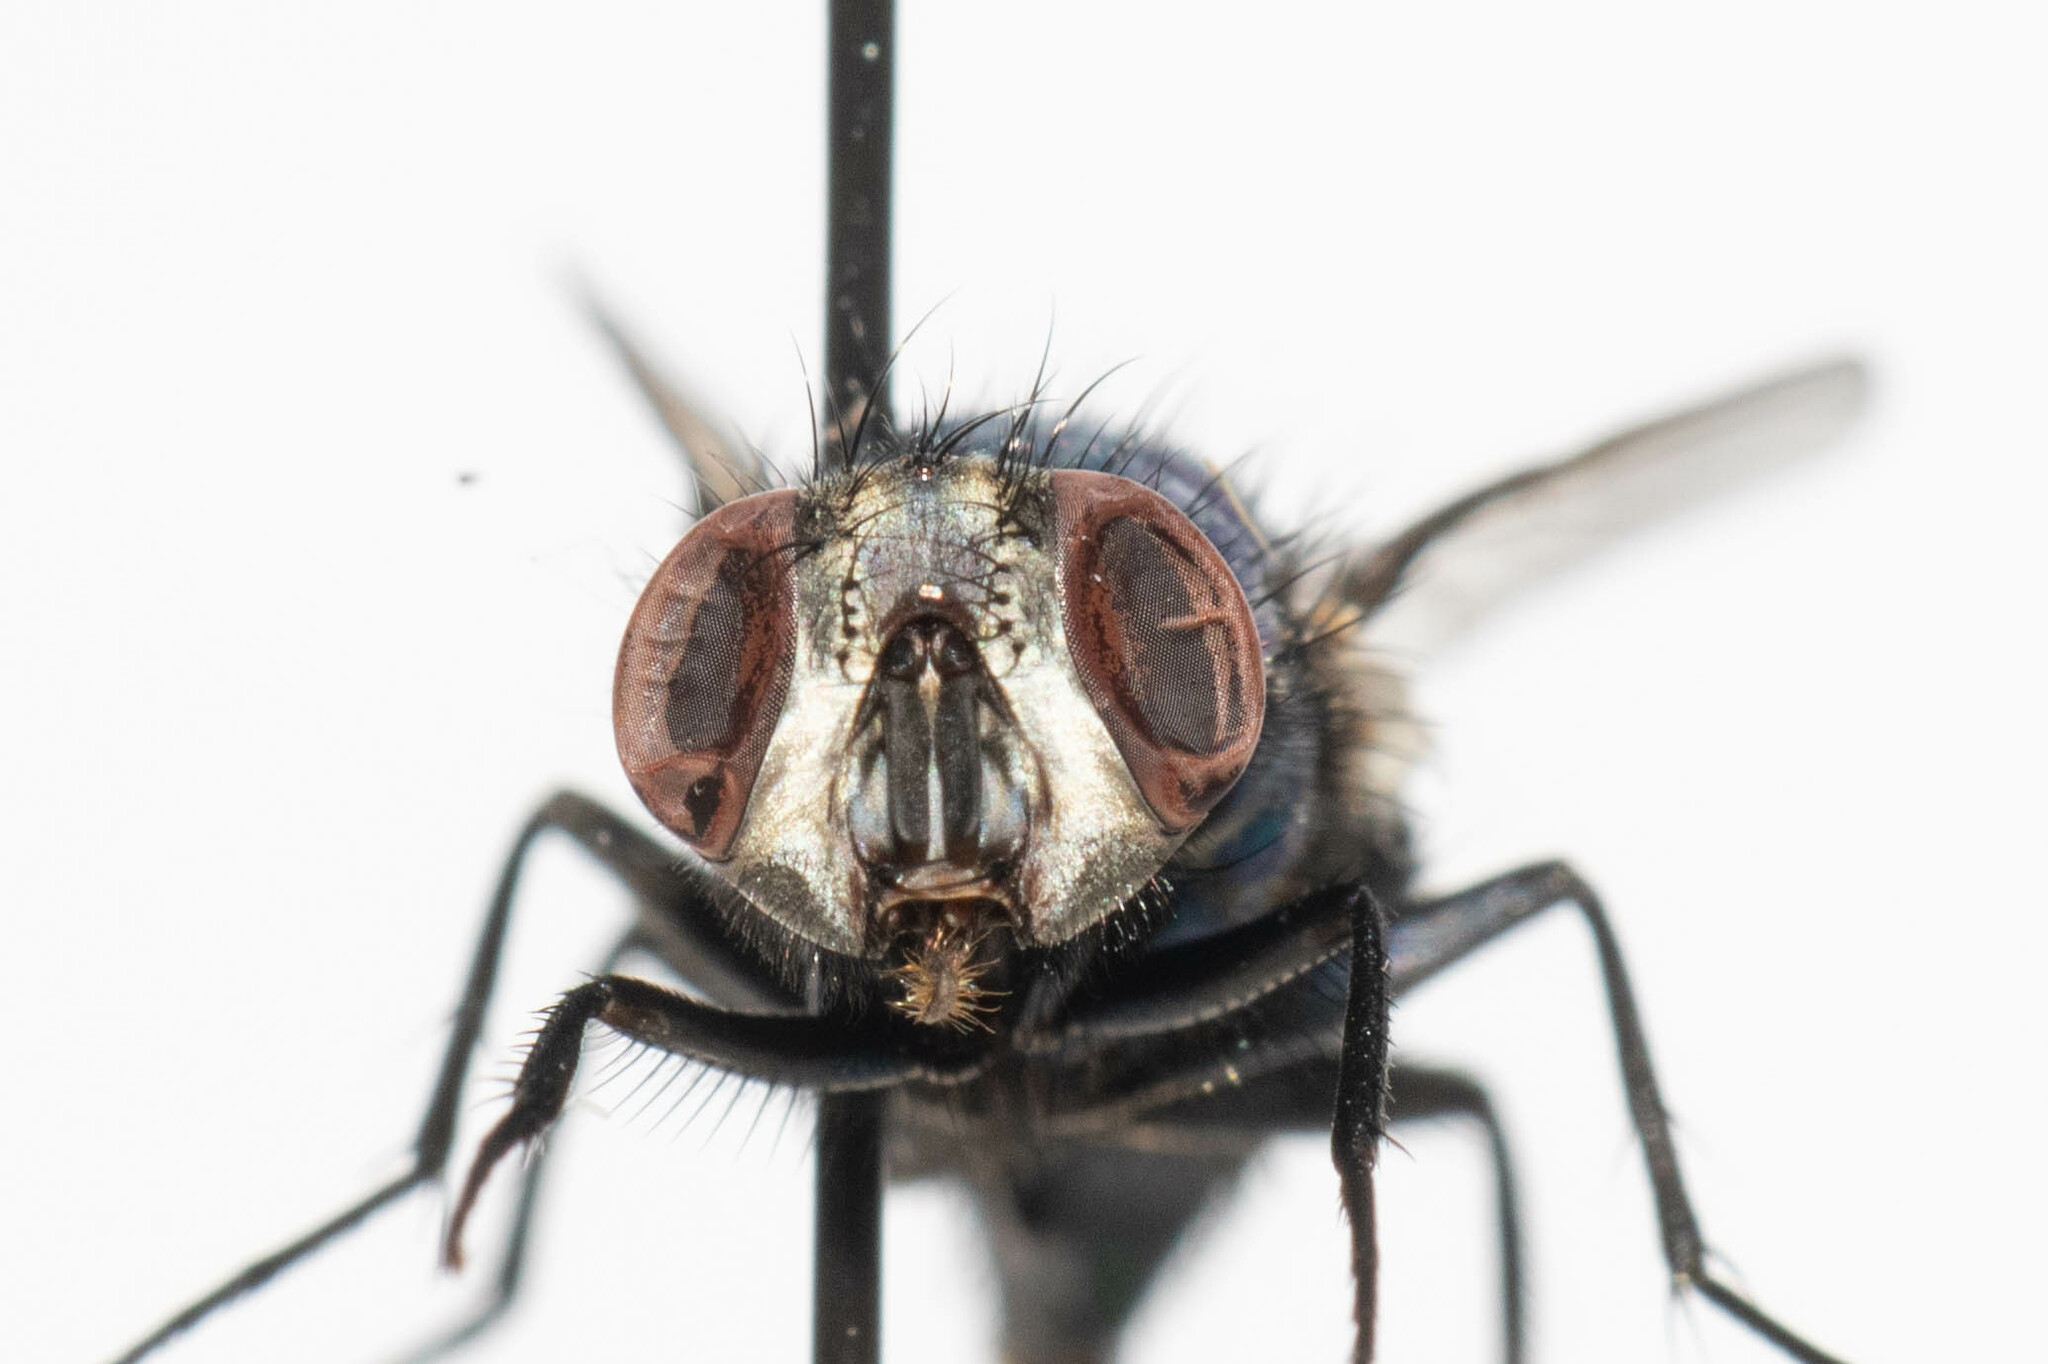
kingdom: Animalia
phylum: Arthropoda
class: Insecta
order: Diptera
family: Calliphoridae
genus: Lucilia
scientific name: Lucilia sericata
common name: Blow fly
